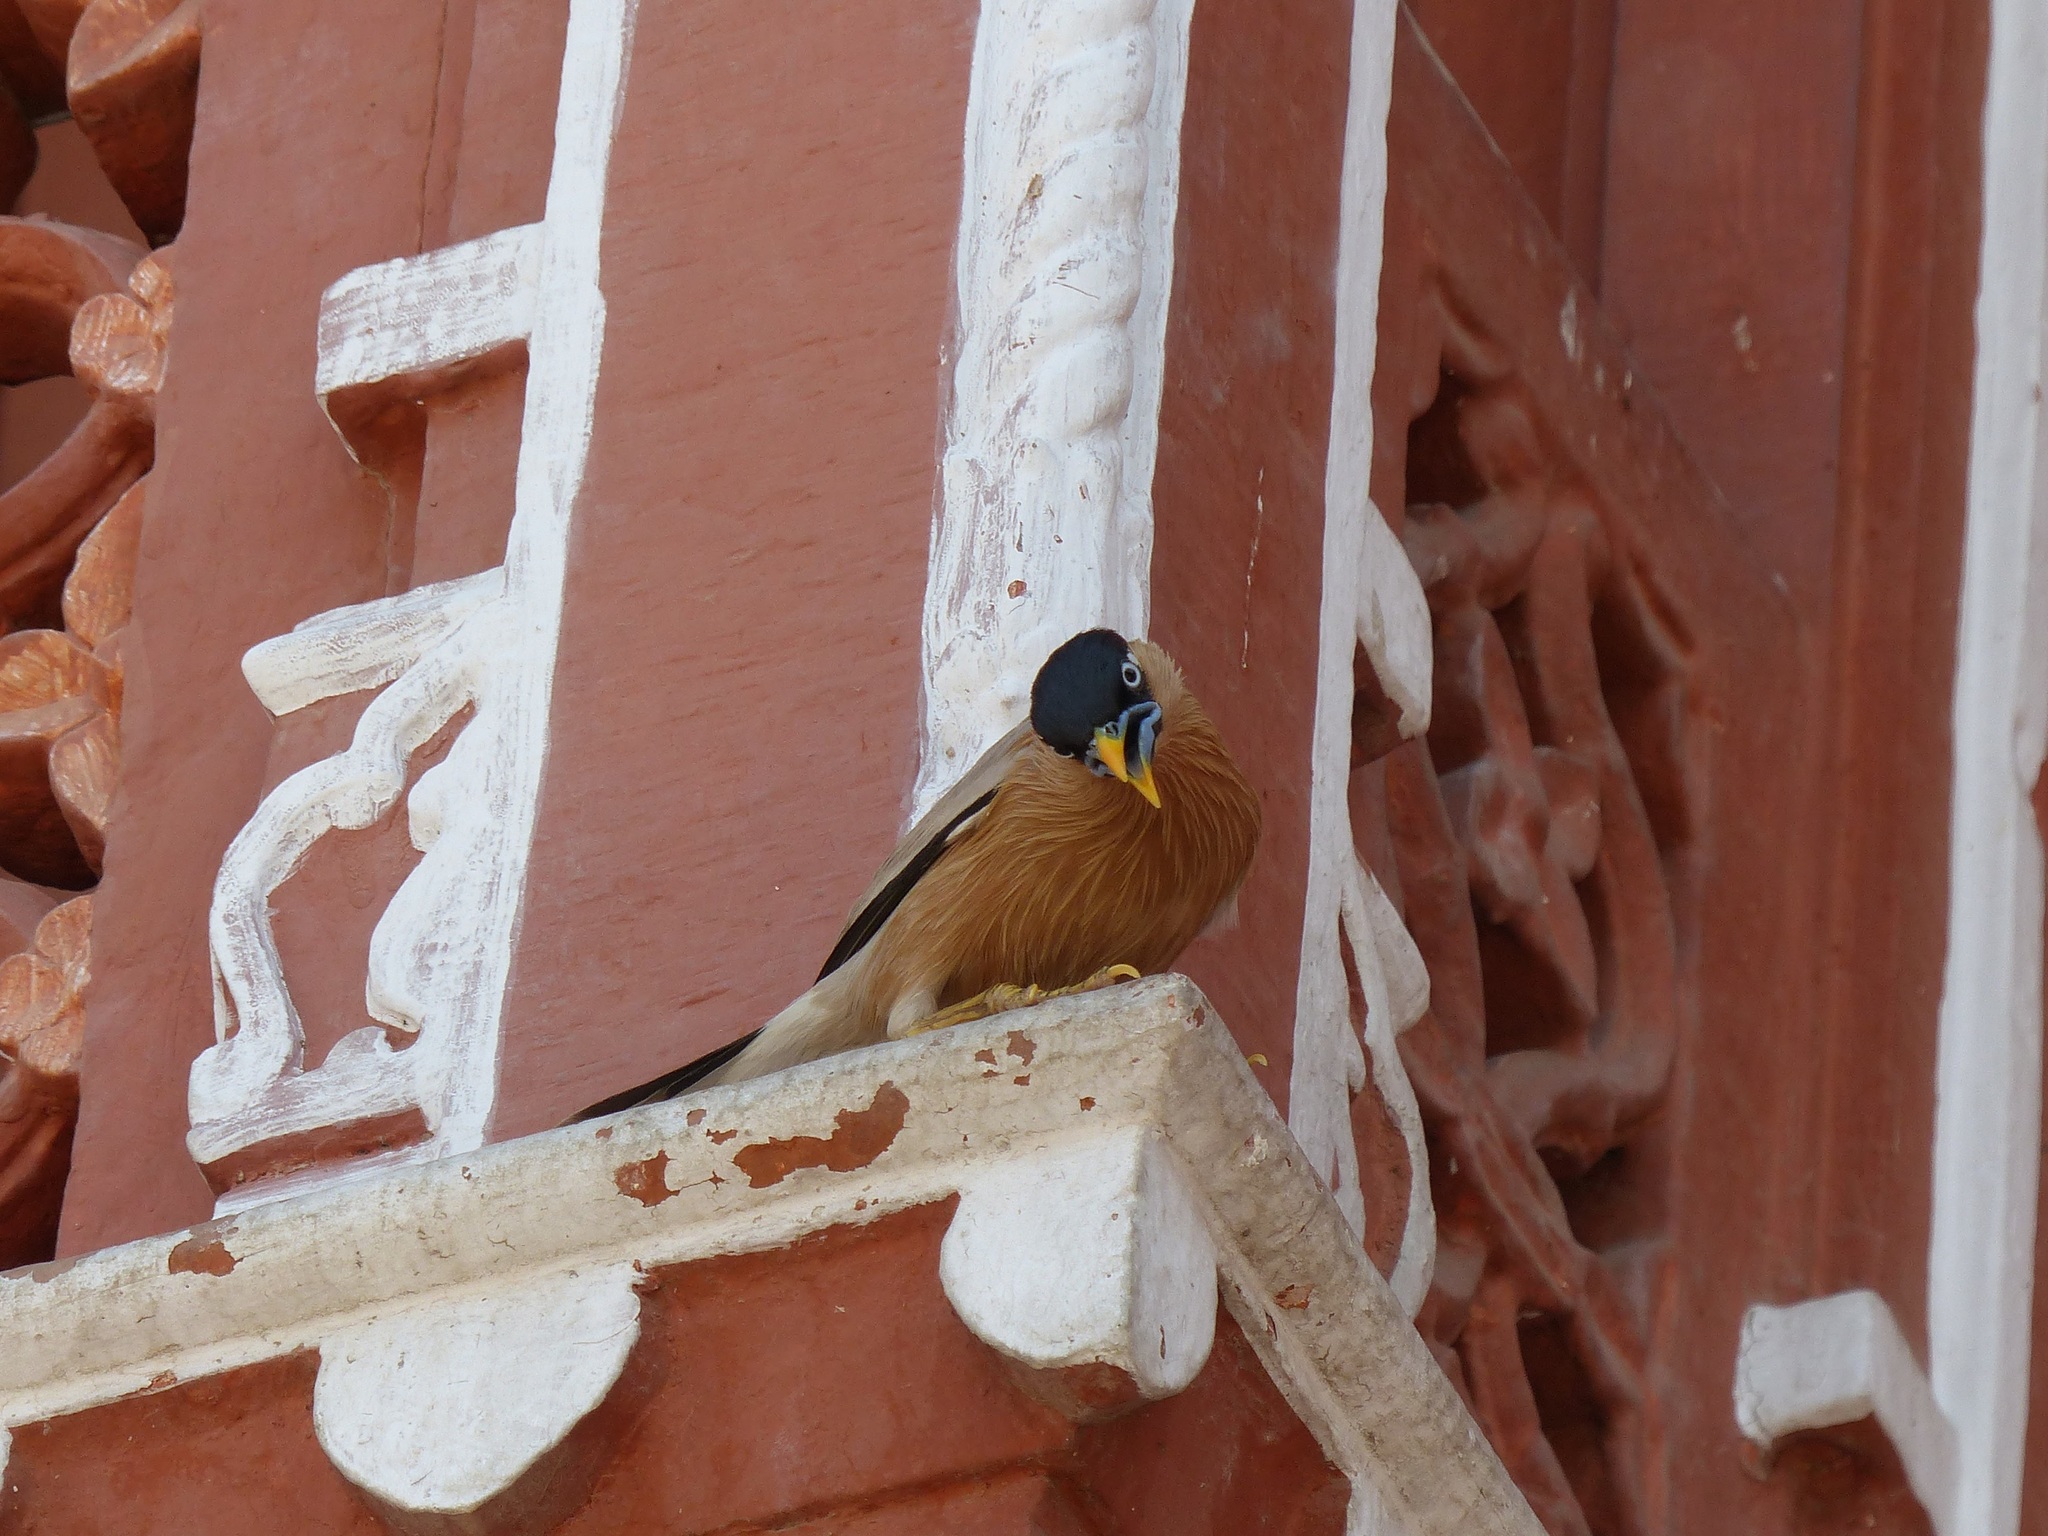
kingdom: Animalia
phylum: Chordata
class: Aves
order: Passeriformes
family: Sturnidae
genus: Sturnia
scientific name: Sturnia pagodarum
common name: Brahminy starling
